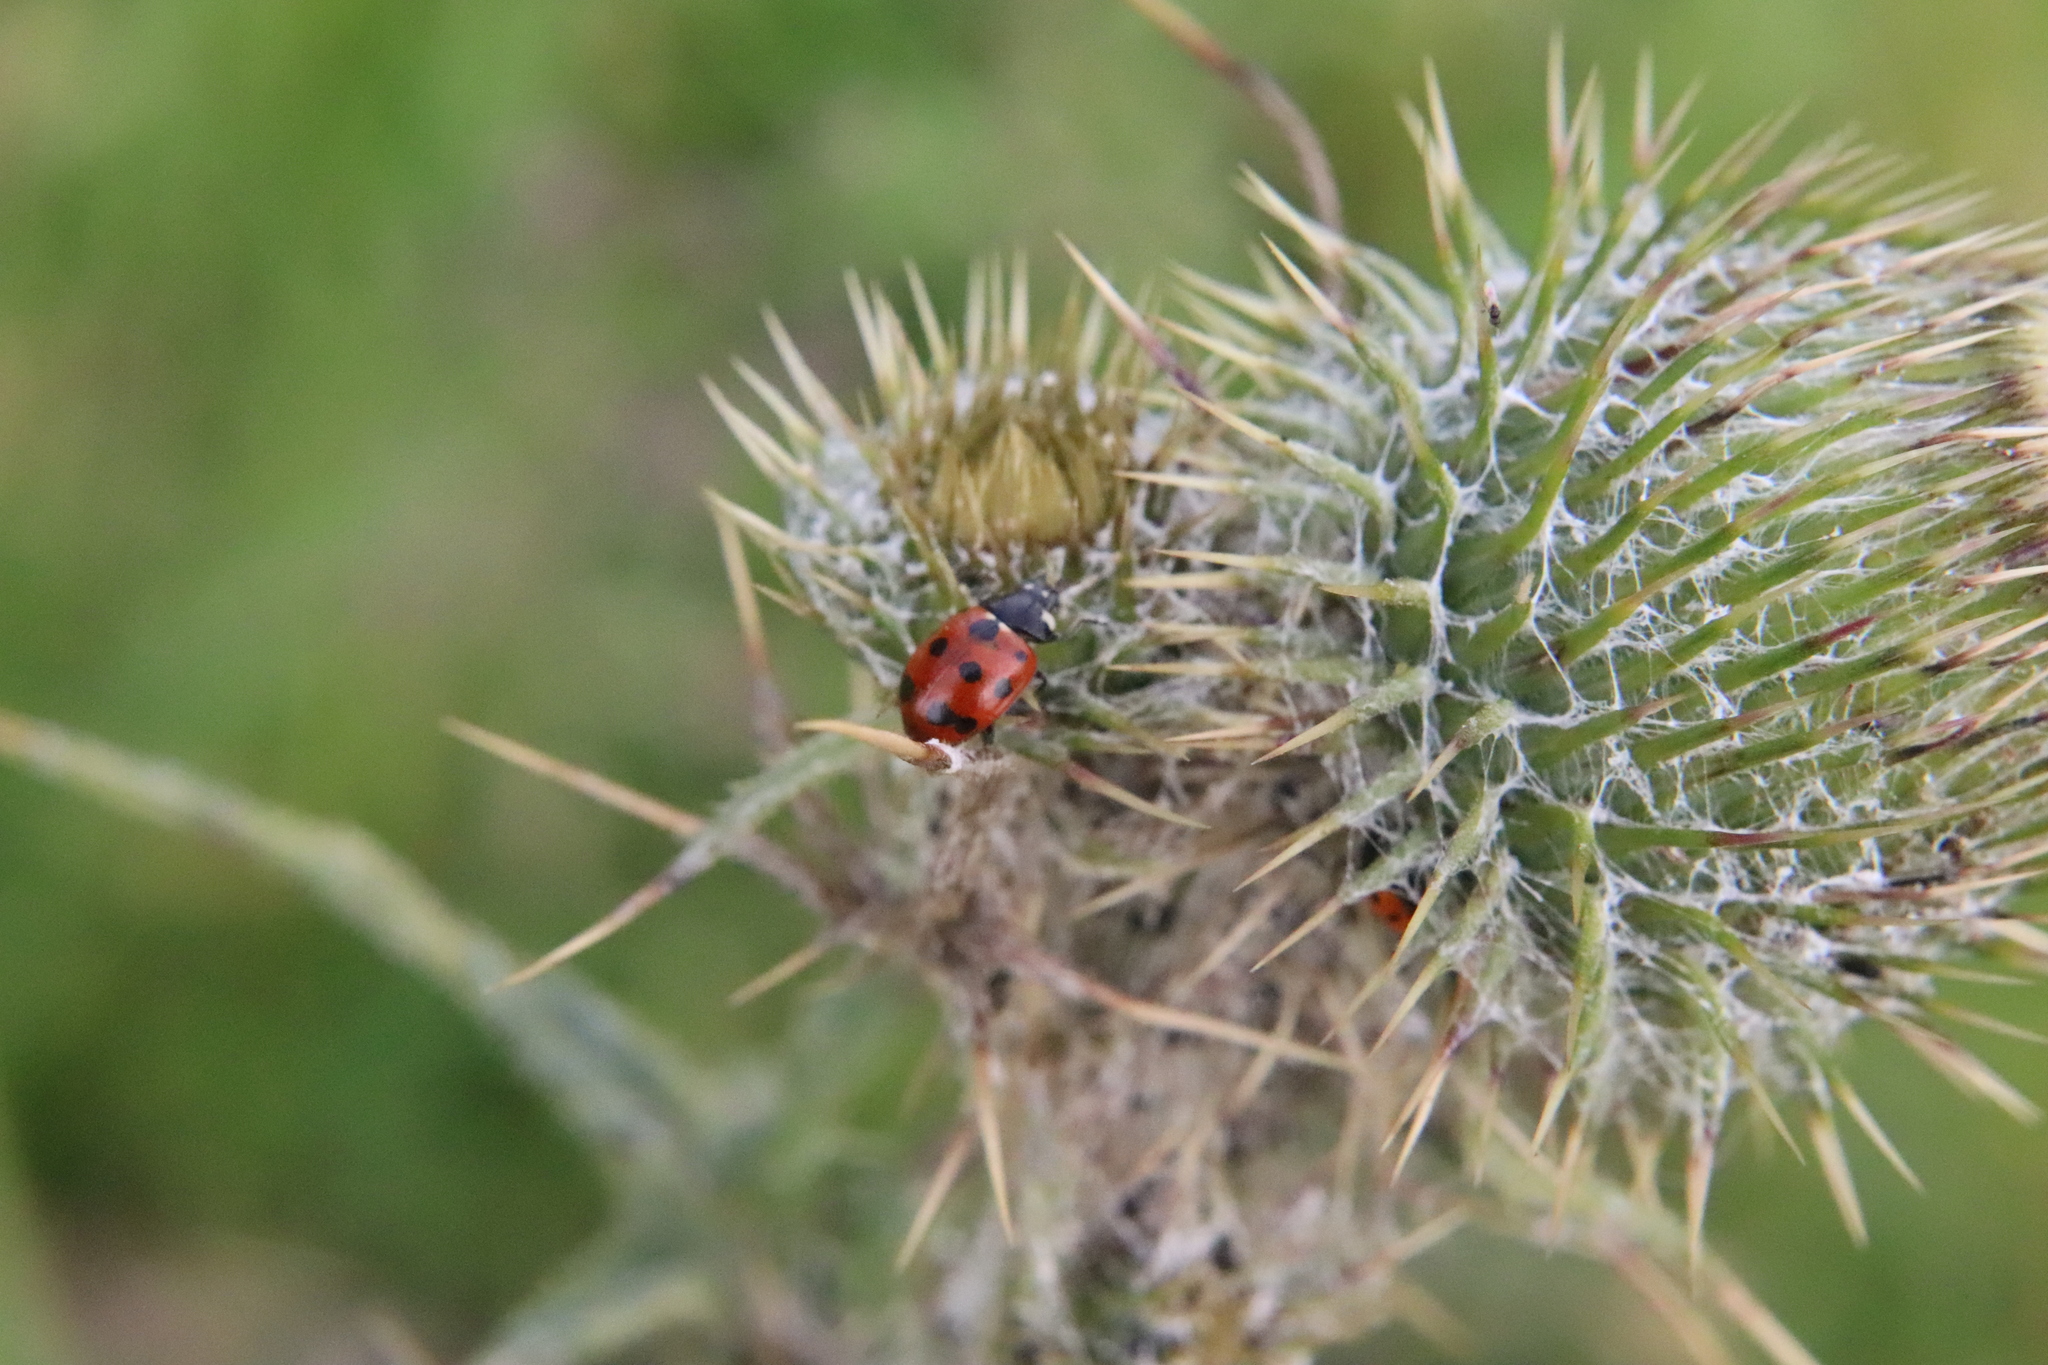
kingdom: Animalia
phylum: Arthropoda
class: Insecta
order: Coleoptera
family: Coccinellidae
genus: Coccinella
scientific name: Coccinella undecimpunctata
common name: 11-spot ladybird
